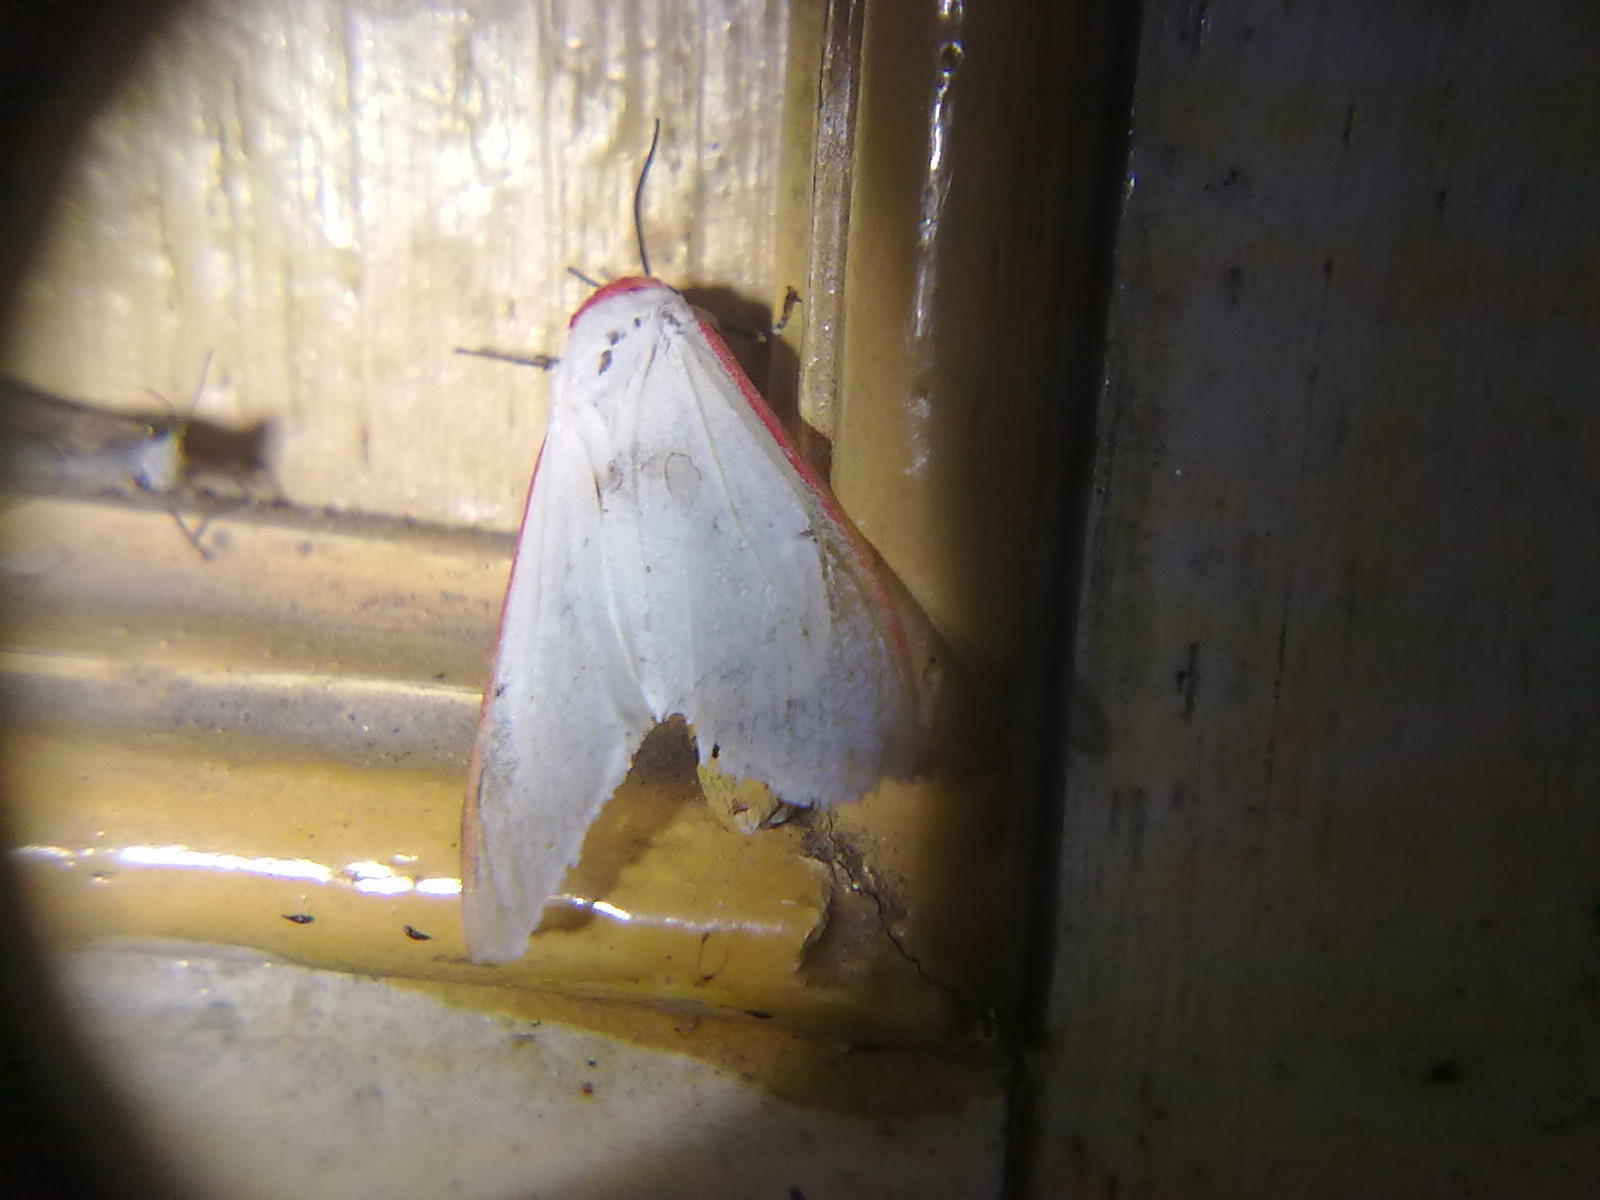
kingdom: Animalia
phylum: Arthropoda
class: Insecta
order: Lepidoptera
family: Erebidae
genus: Aloa
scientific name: Aloa lactinea
